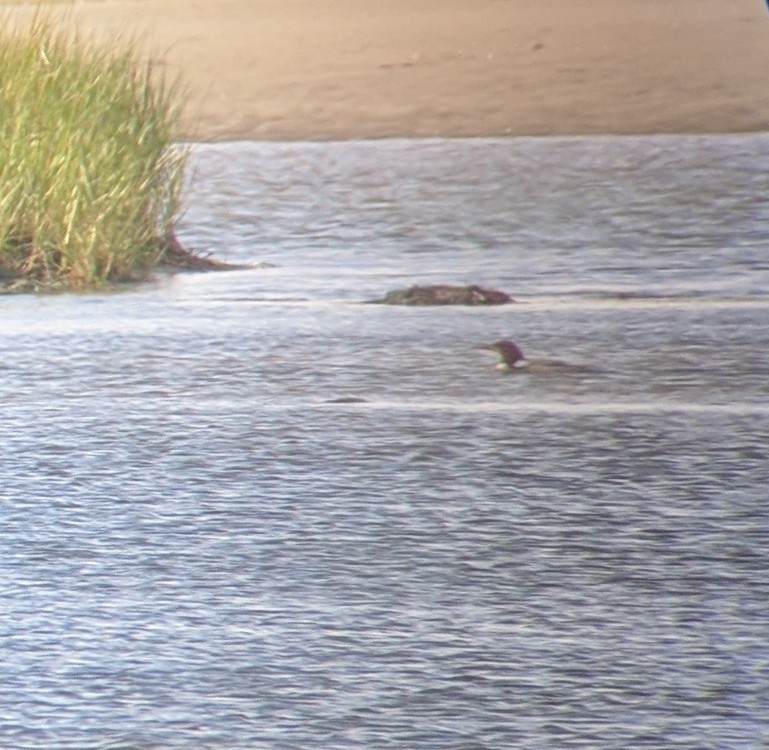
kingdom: Animalia
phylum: Chordata
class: Aves
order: Anseriformes
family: Anatidae
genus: Mergus
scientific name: Mergus merganser
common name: Common merganser
